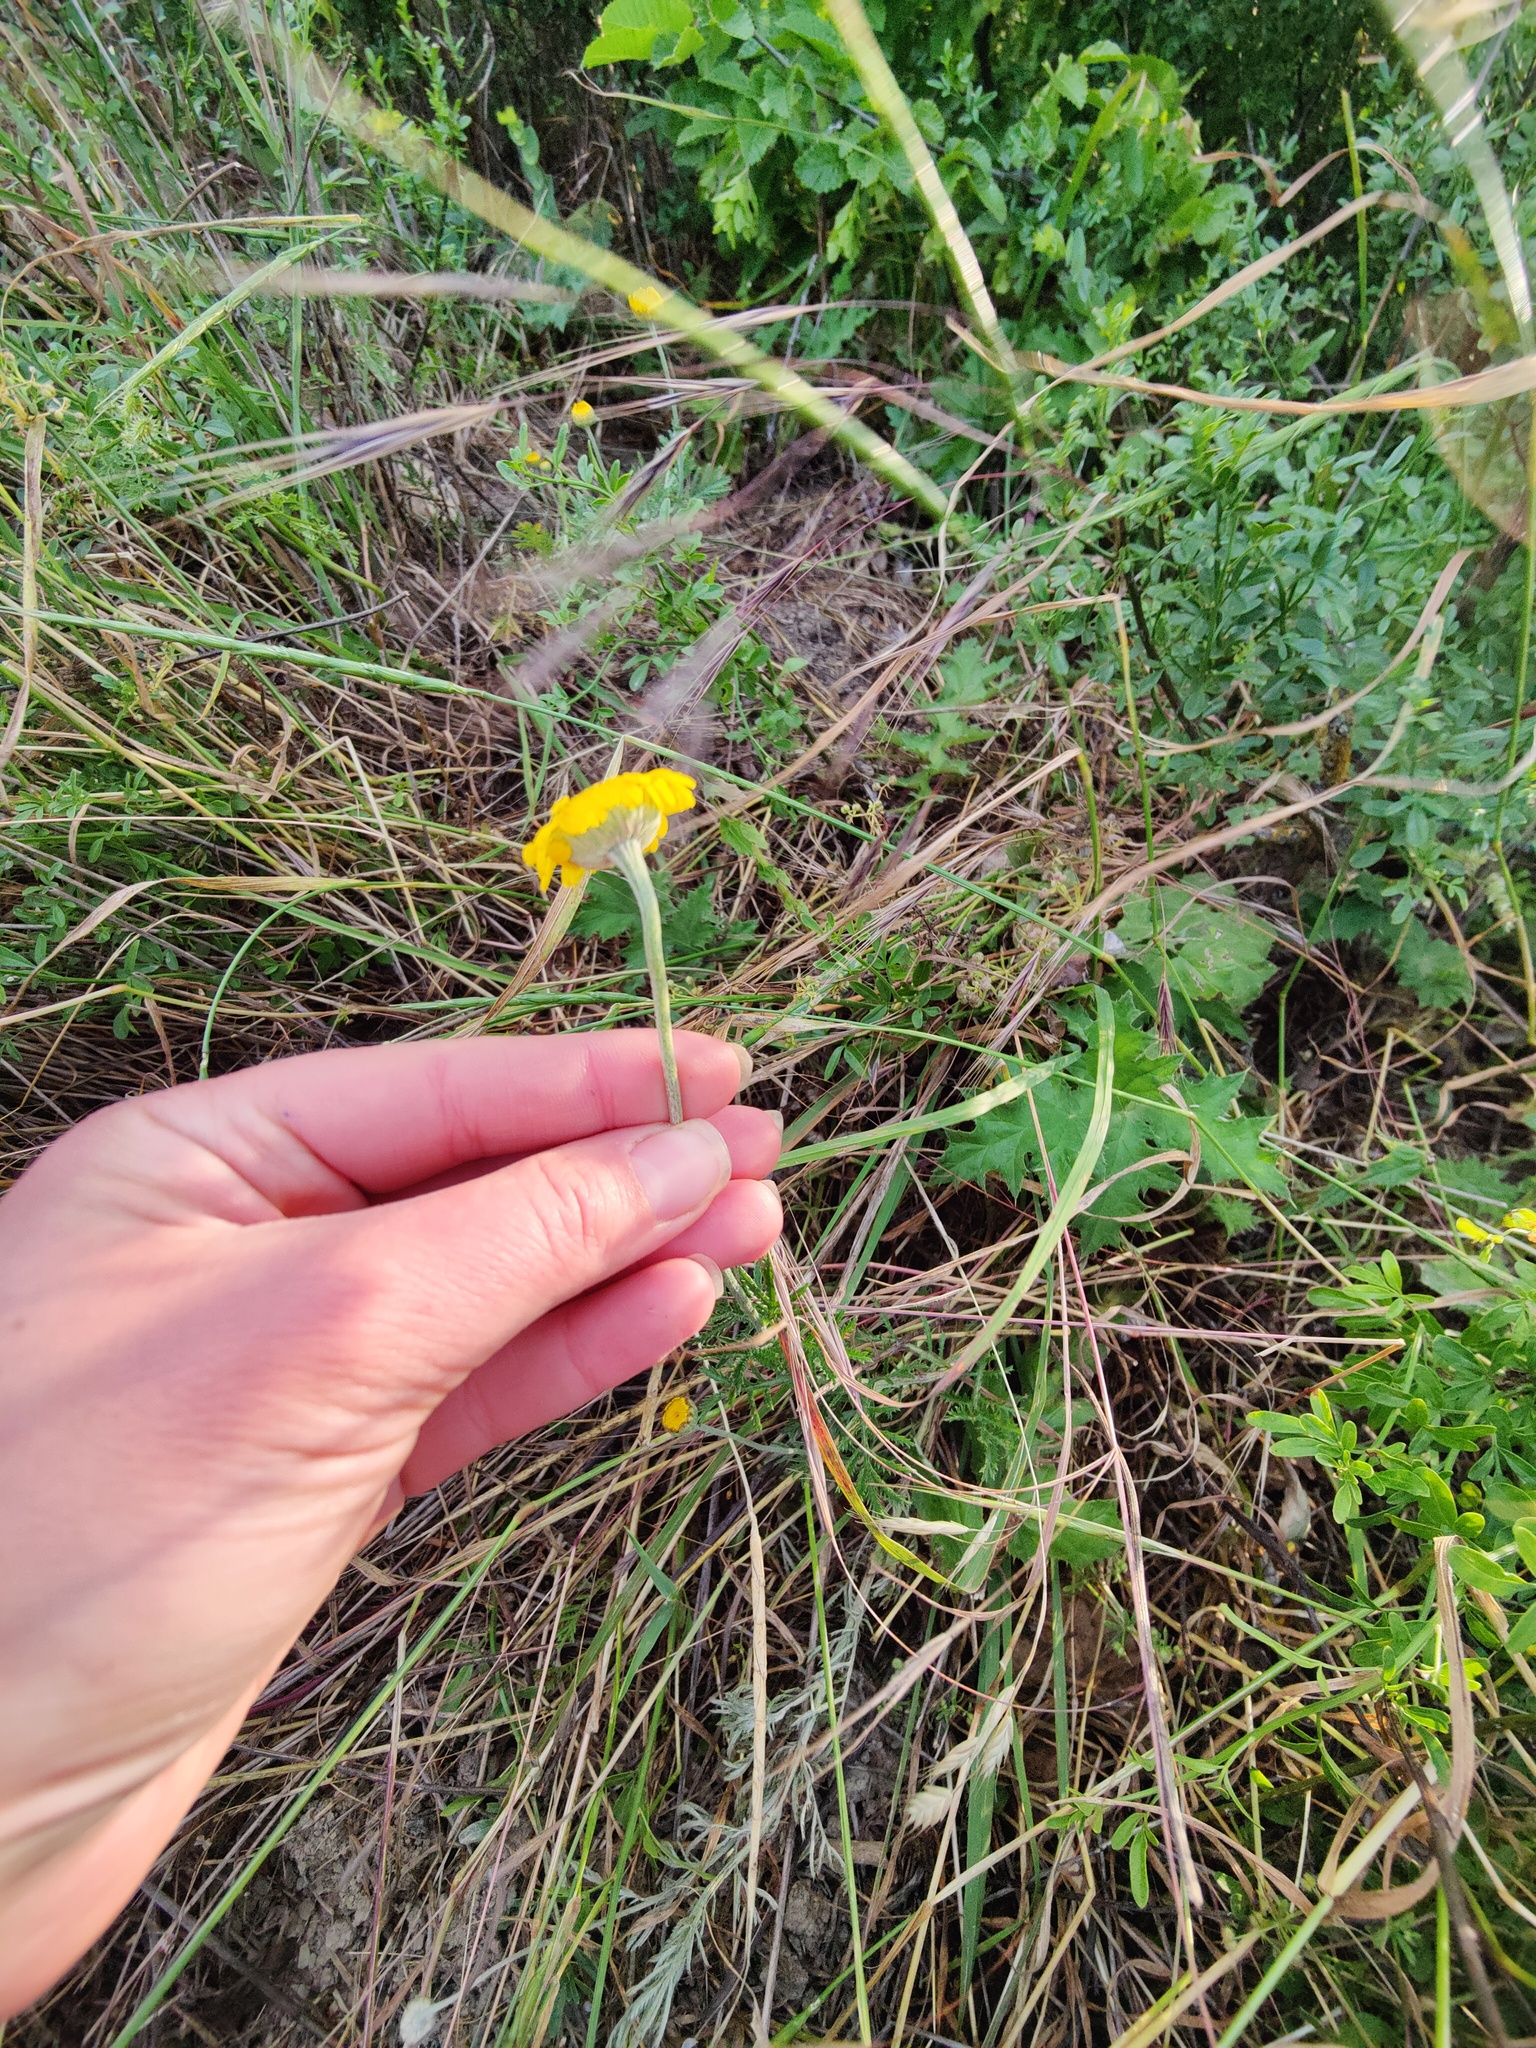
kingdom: Plantae
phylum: Tracheophyta
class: Magnoliopsida
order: Asterales
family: Asteraceae
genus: Cota
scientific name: Cota tinctoria
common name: Golden chamomile
